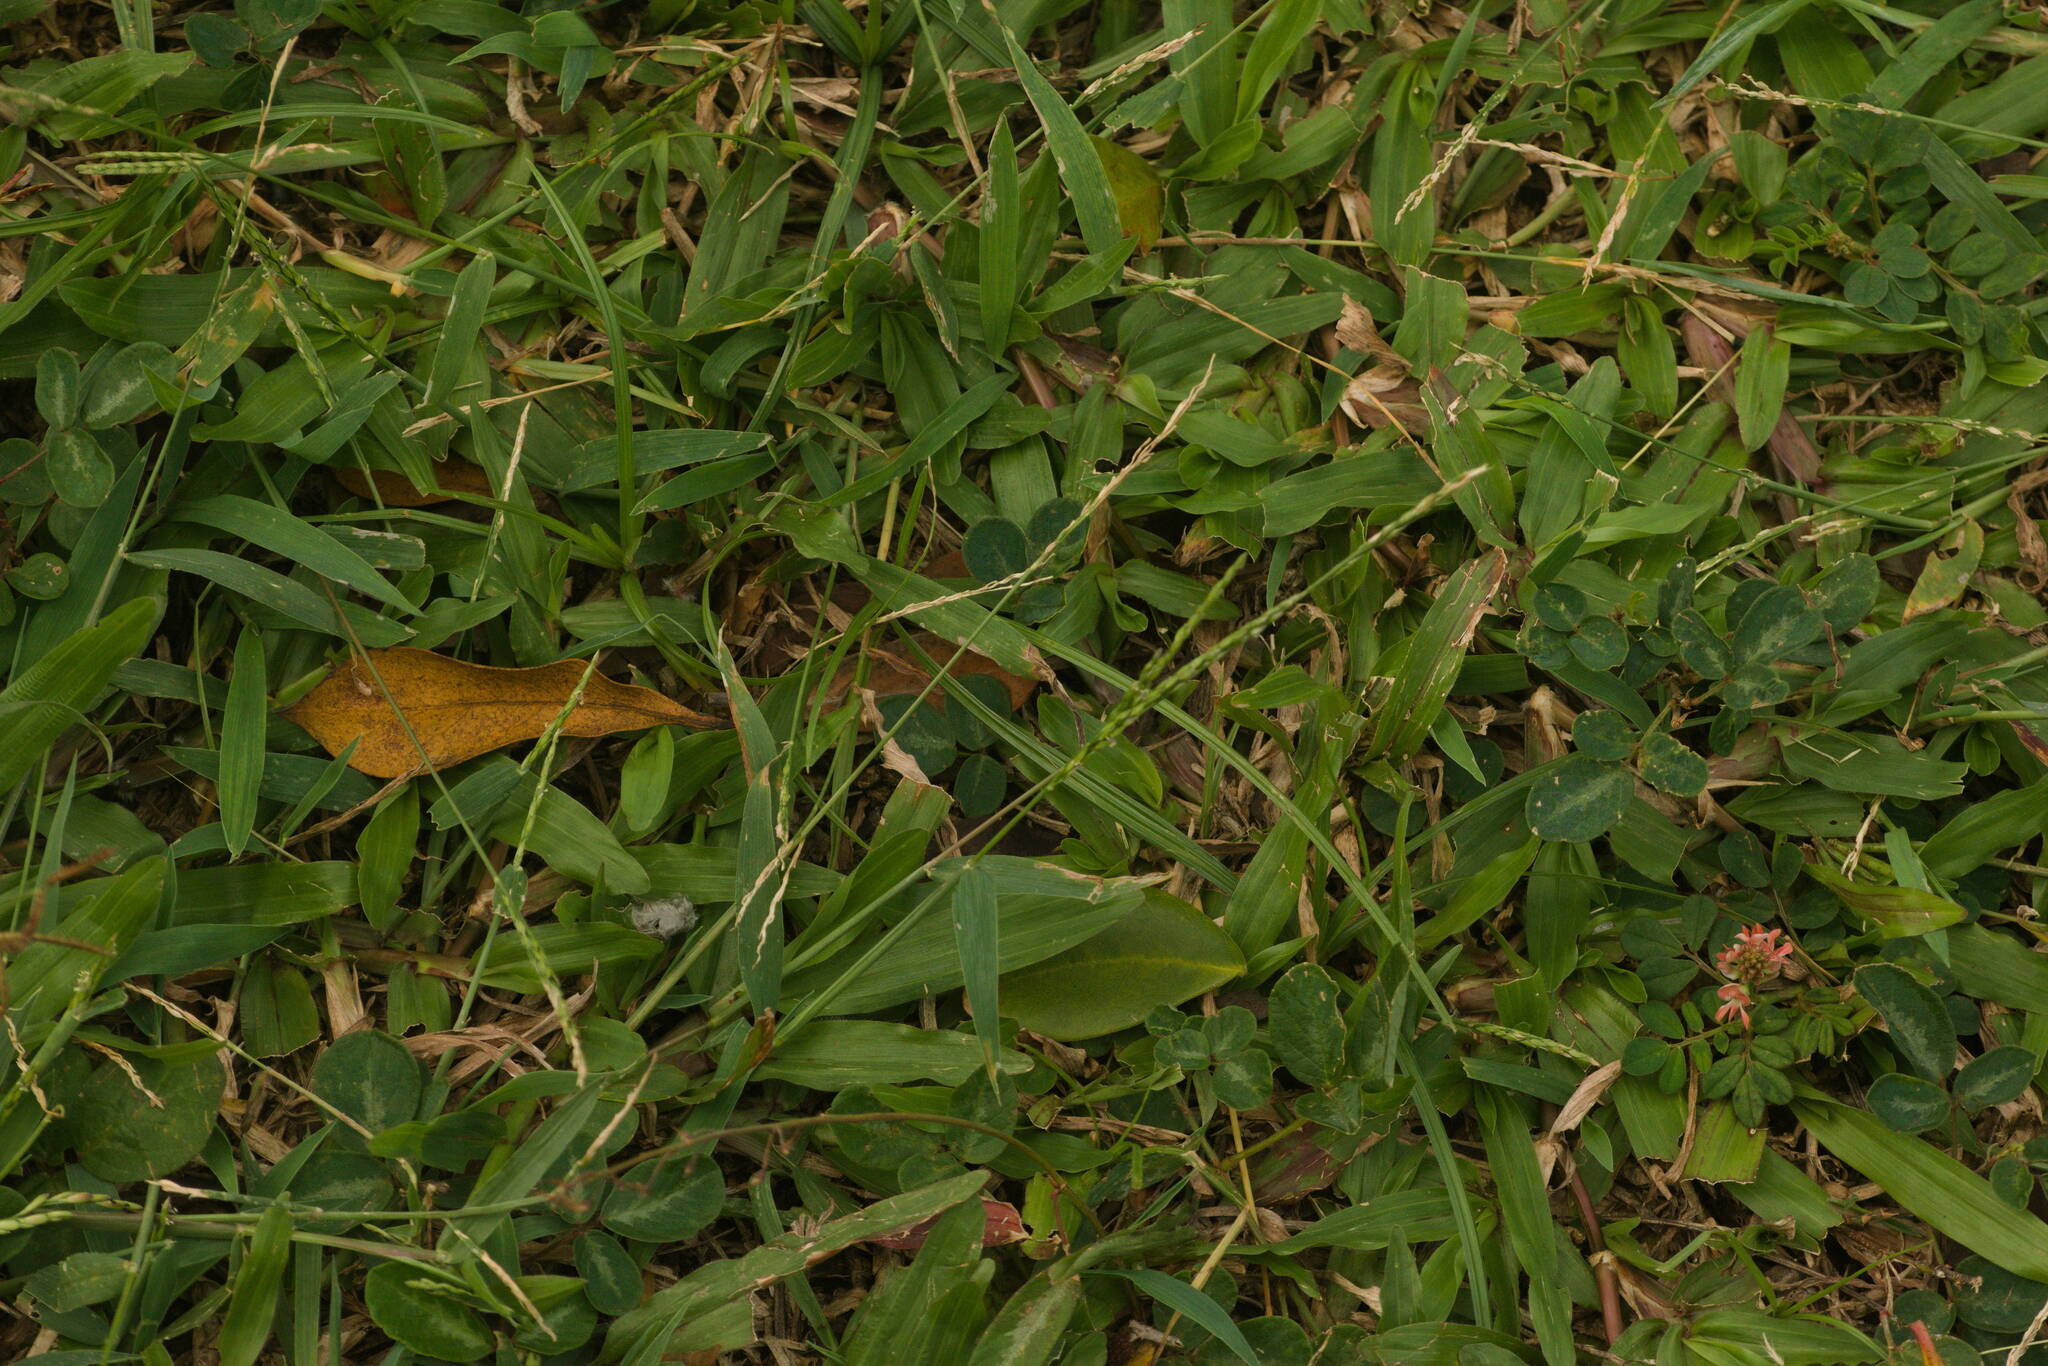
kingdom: Plantae
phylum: Tracheophyta
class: Liliopsida
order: Poales
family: Poaceae
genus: Digitaria
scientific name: Digitaria ciliaris
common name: Tropical finger-grass
